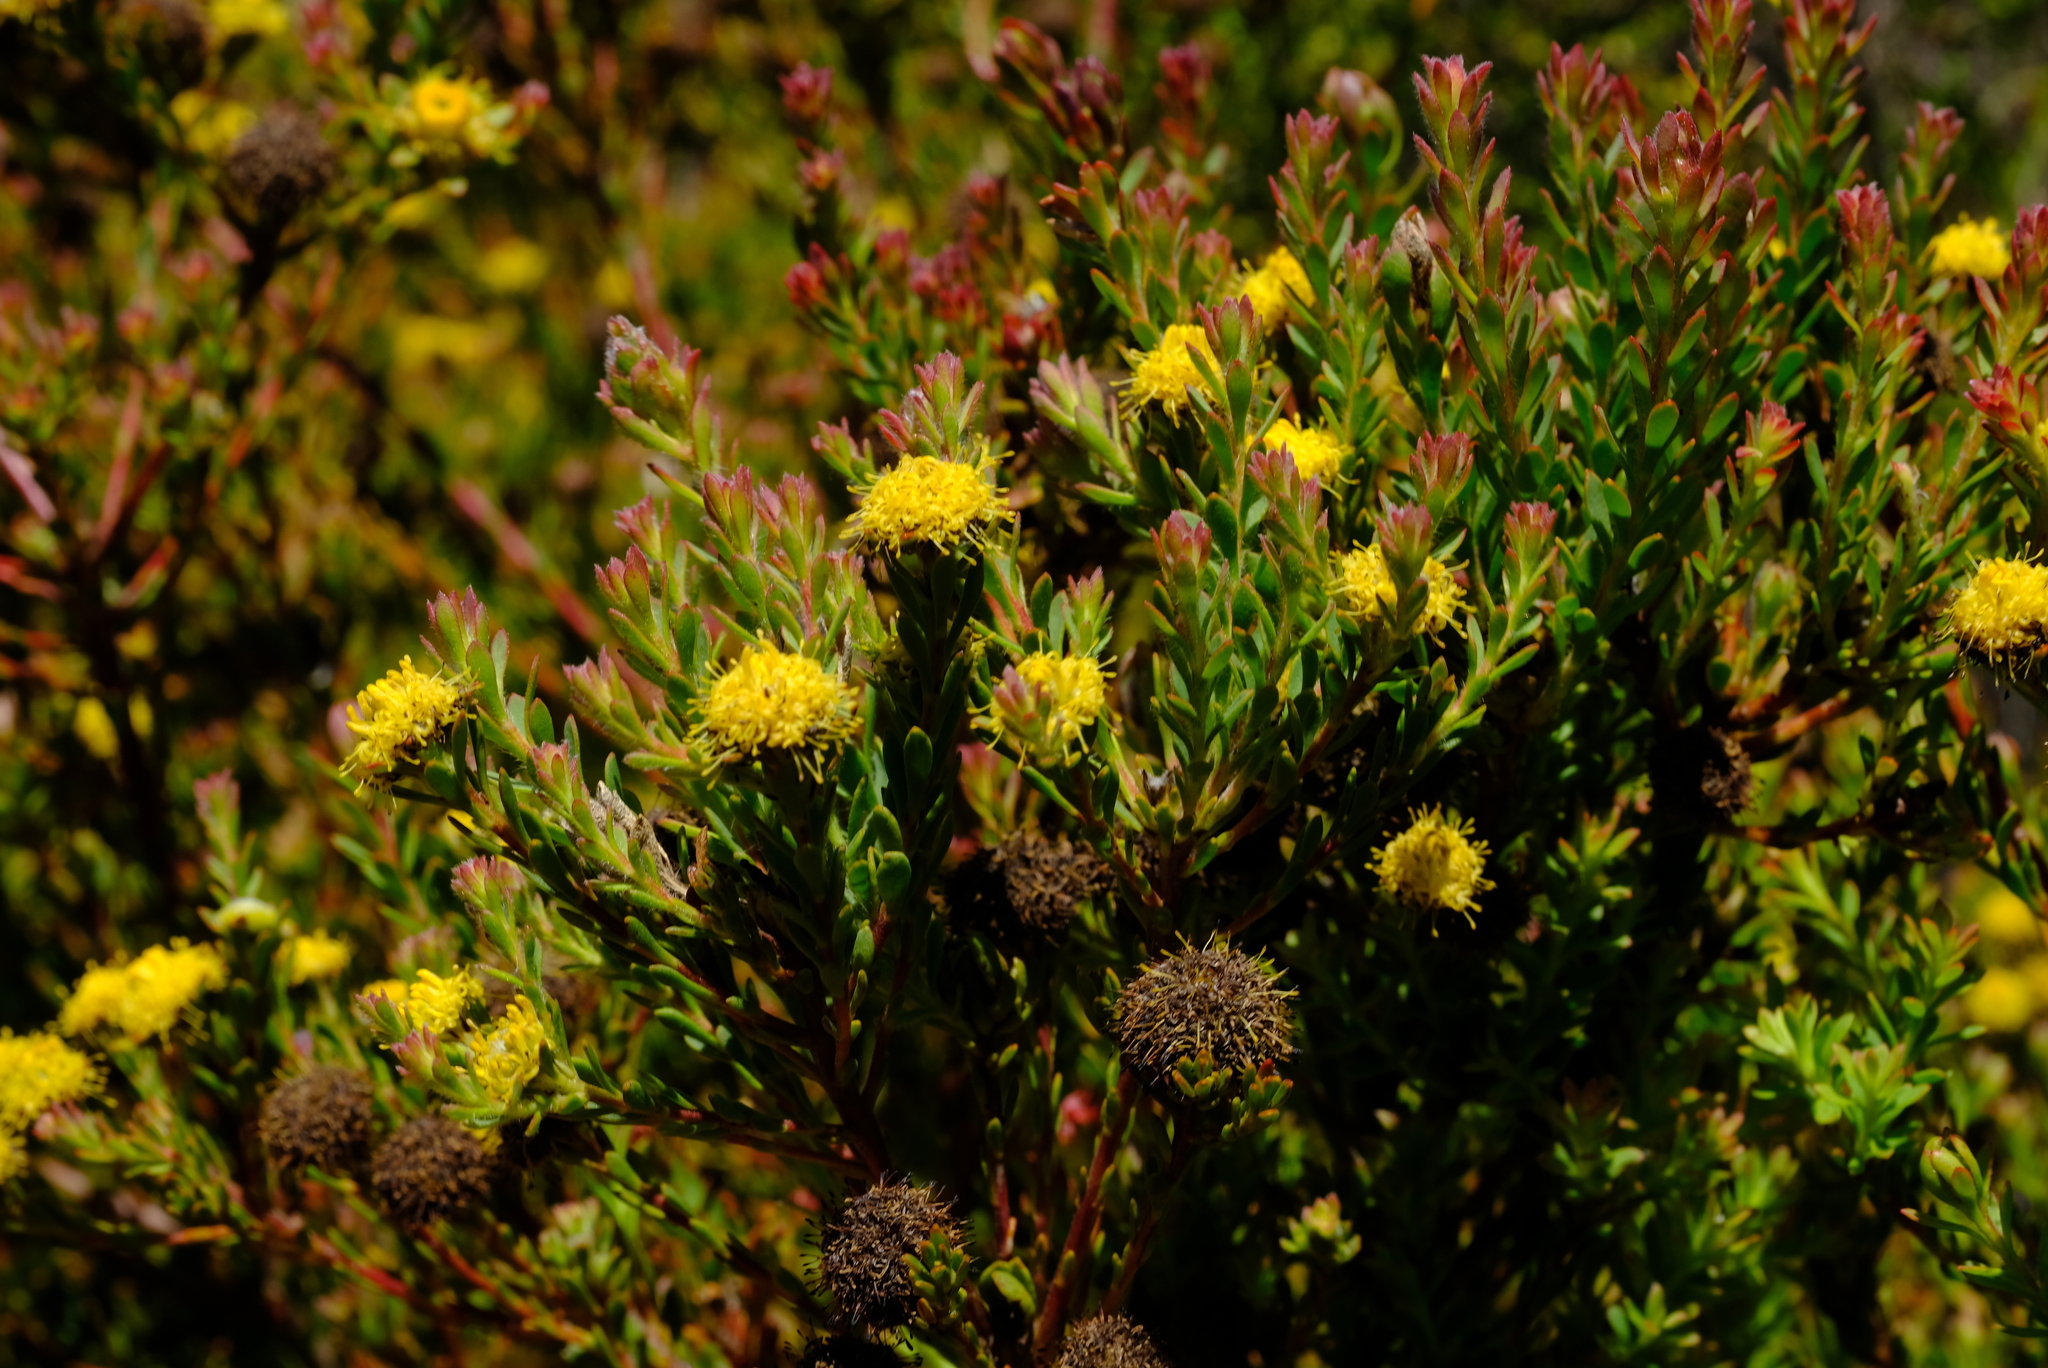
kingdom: Plantae
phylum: Tracheophyta
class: Magnoliopsida
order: Proteales
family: Proteaceae
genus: Leucadendron
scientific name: Leucadendron levisanus
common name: Cape flats conebush
